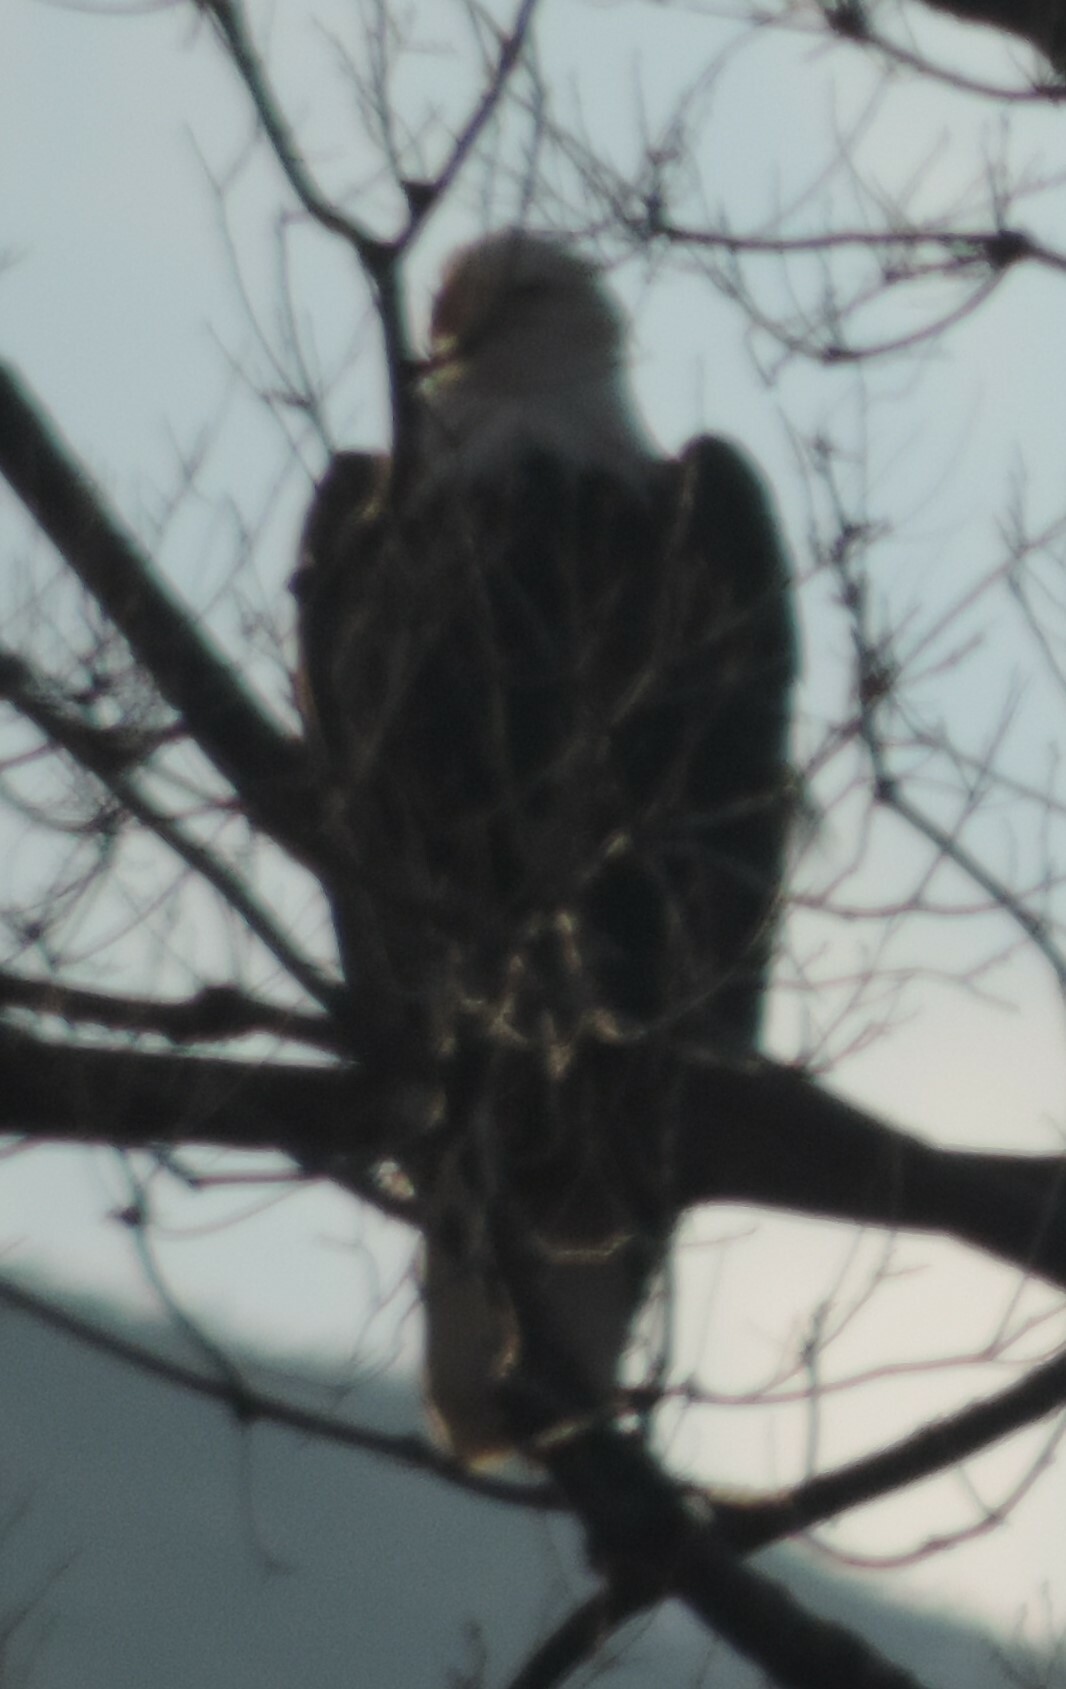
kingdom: Animalia
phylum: Chordata
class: Aves
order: Accipitriformes
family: Accipitridae
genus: Haliaeetus
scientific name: Haliaeetus leucocephalus
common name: Bald eagle
